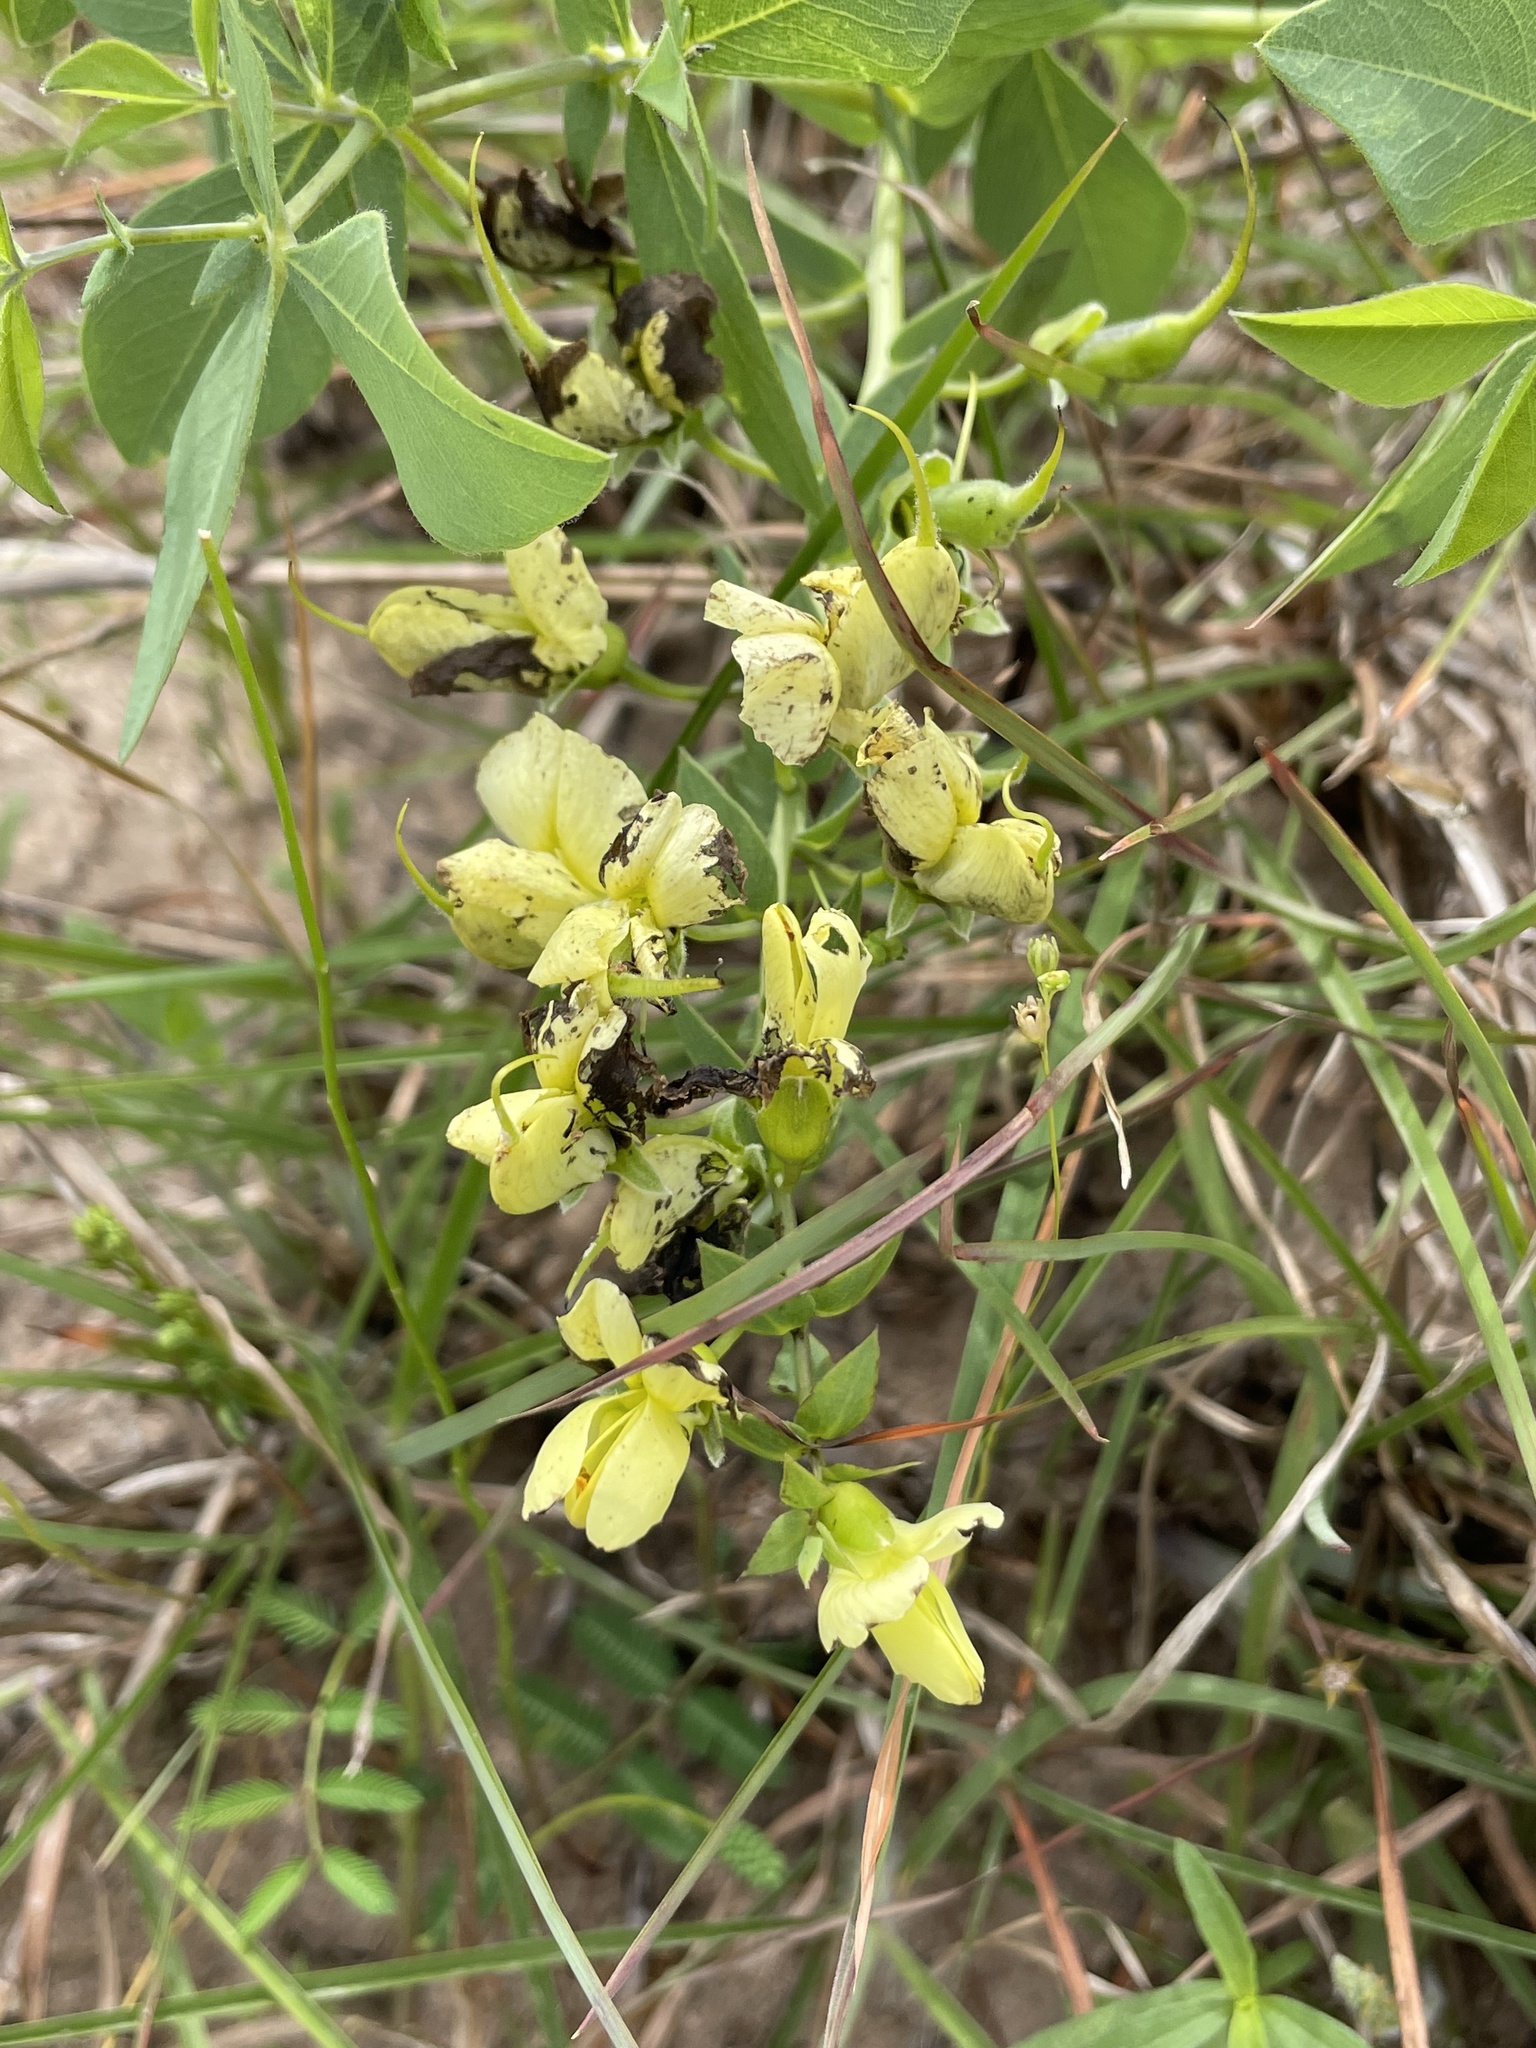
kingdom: Plantae
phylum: Tracheophyta
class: Magnoliopsida
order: Fabales
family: Fabaceae
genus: Baptisia
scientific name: Baptisia bracteata
